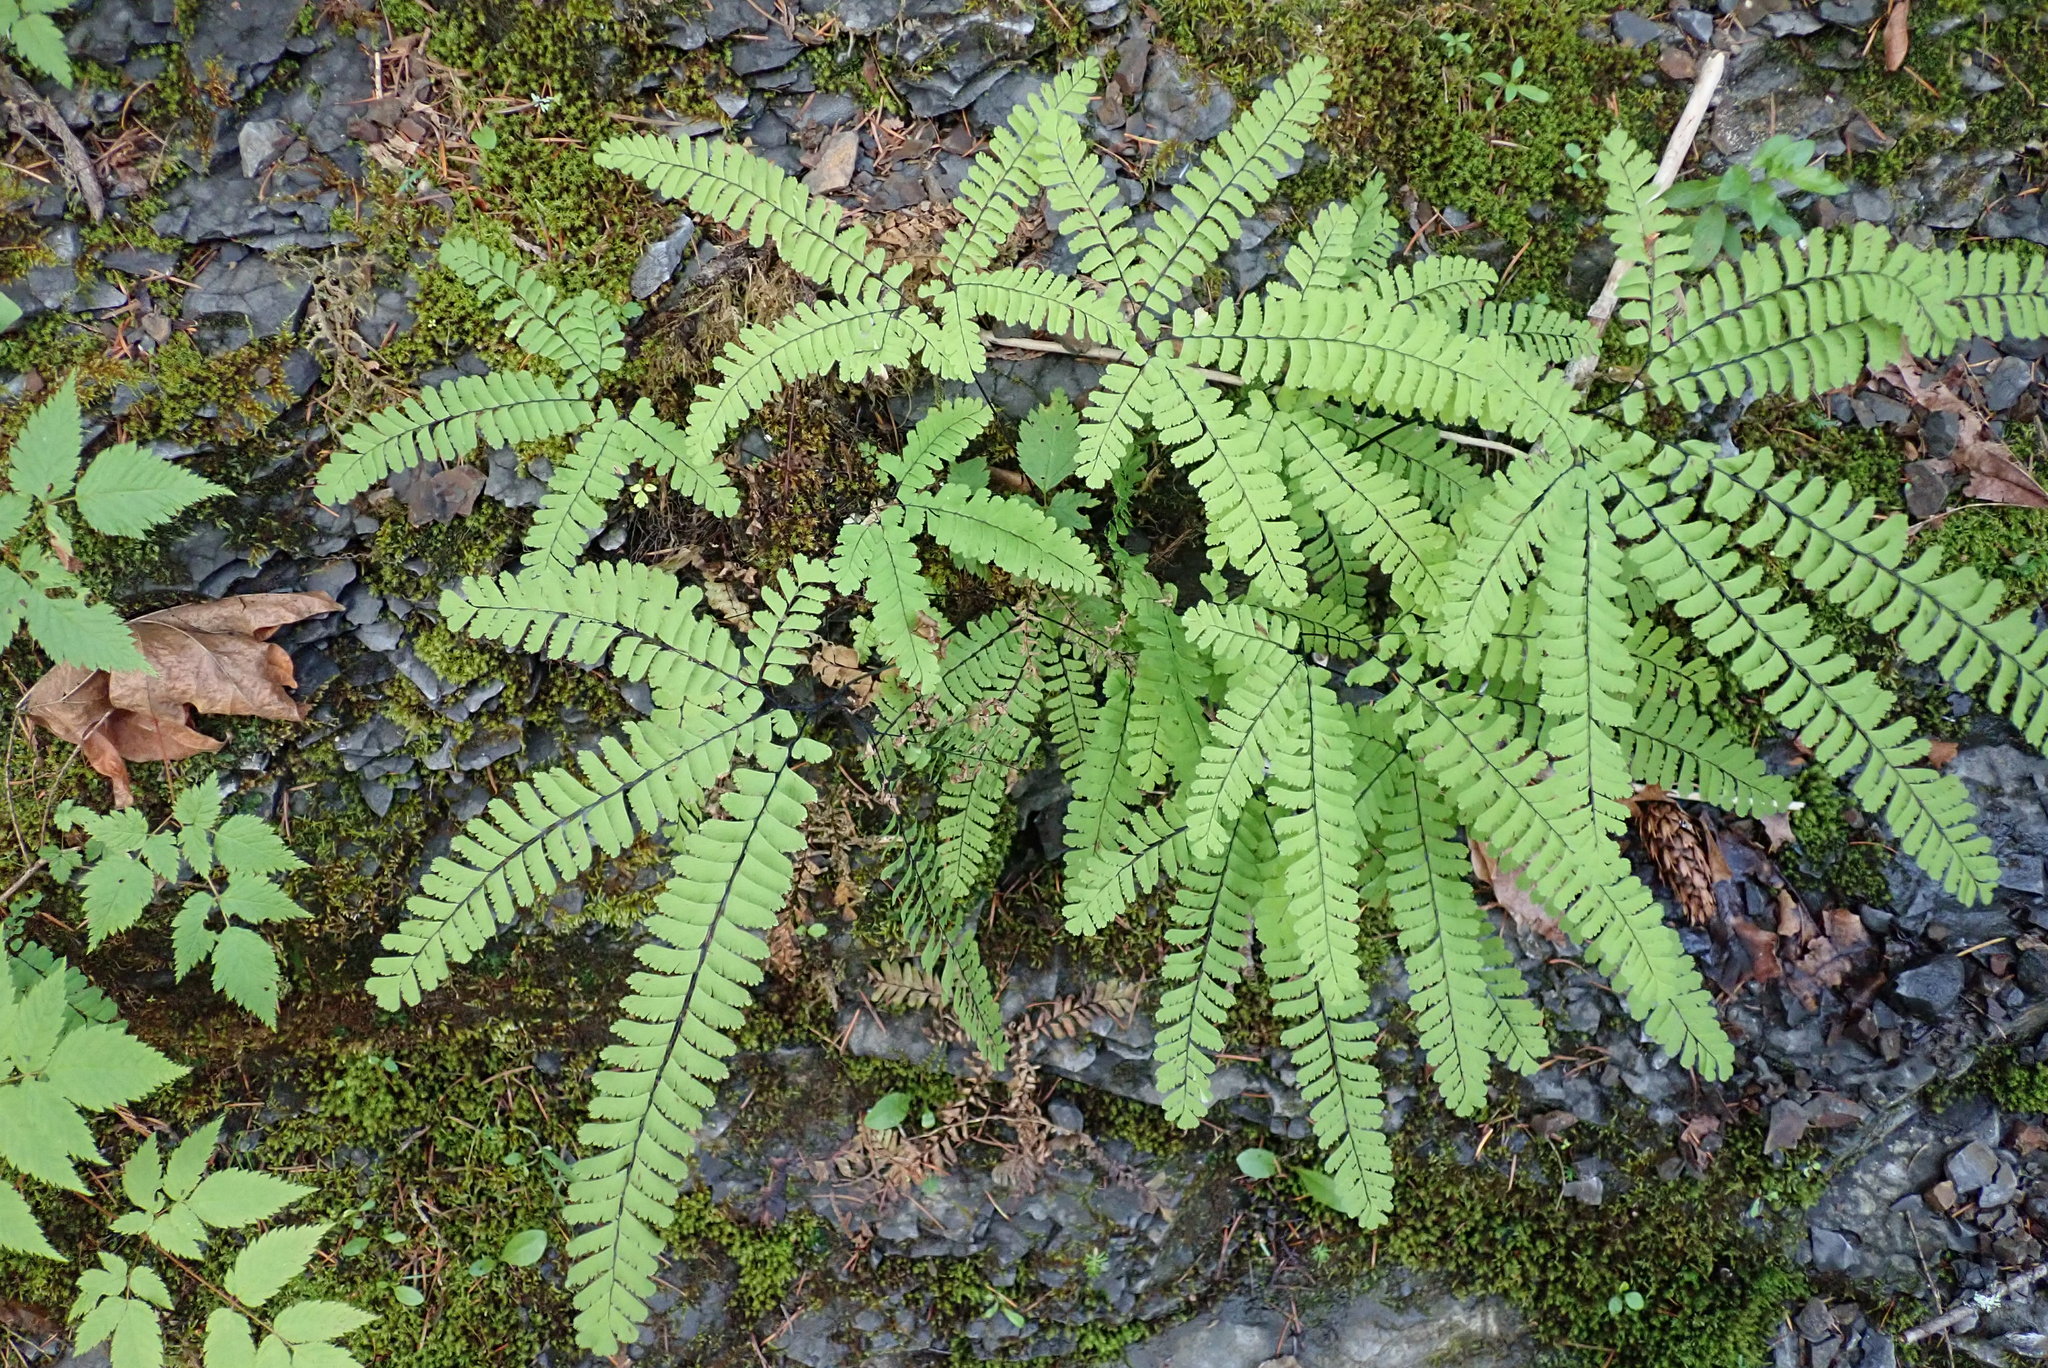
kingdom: Plantae
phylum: Tracheophyta
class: Polypodiopsida
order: Polypodiales
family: Pteridaceae
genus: Adiantum
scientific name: Adiantum aleuticum
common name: Aleutian maidenhair fern
